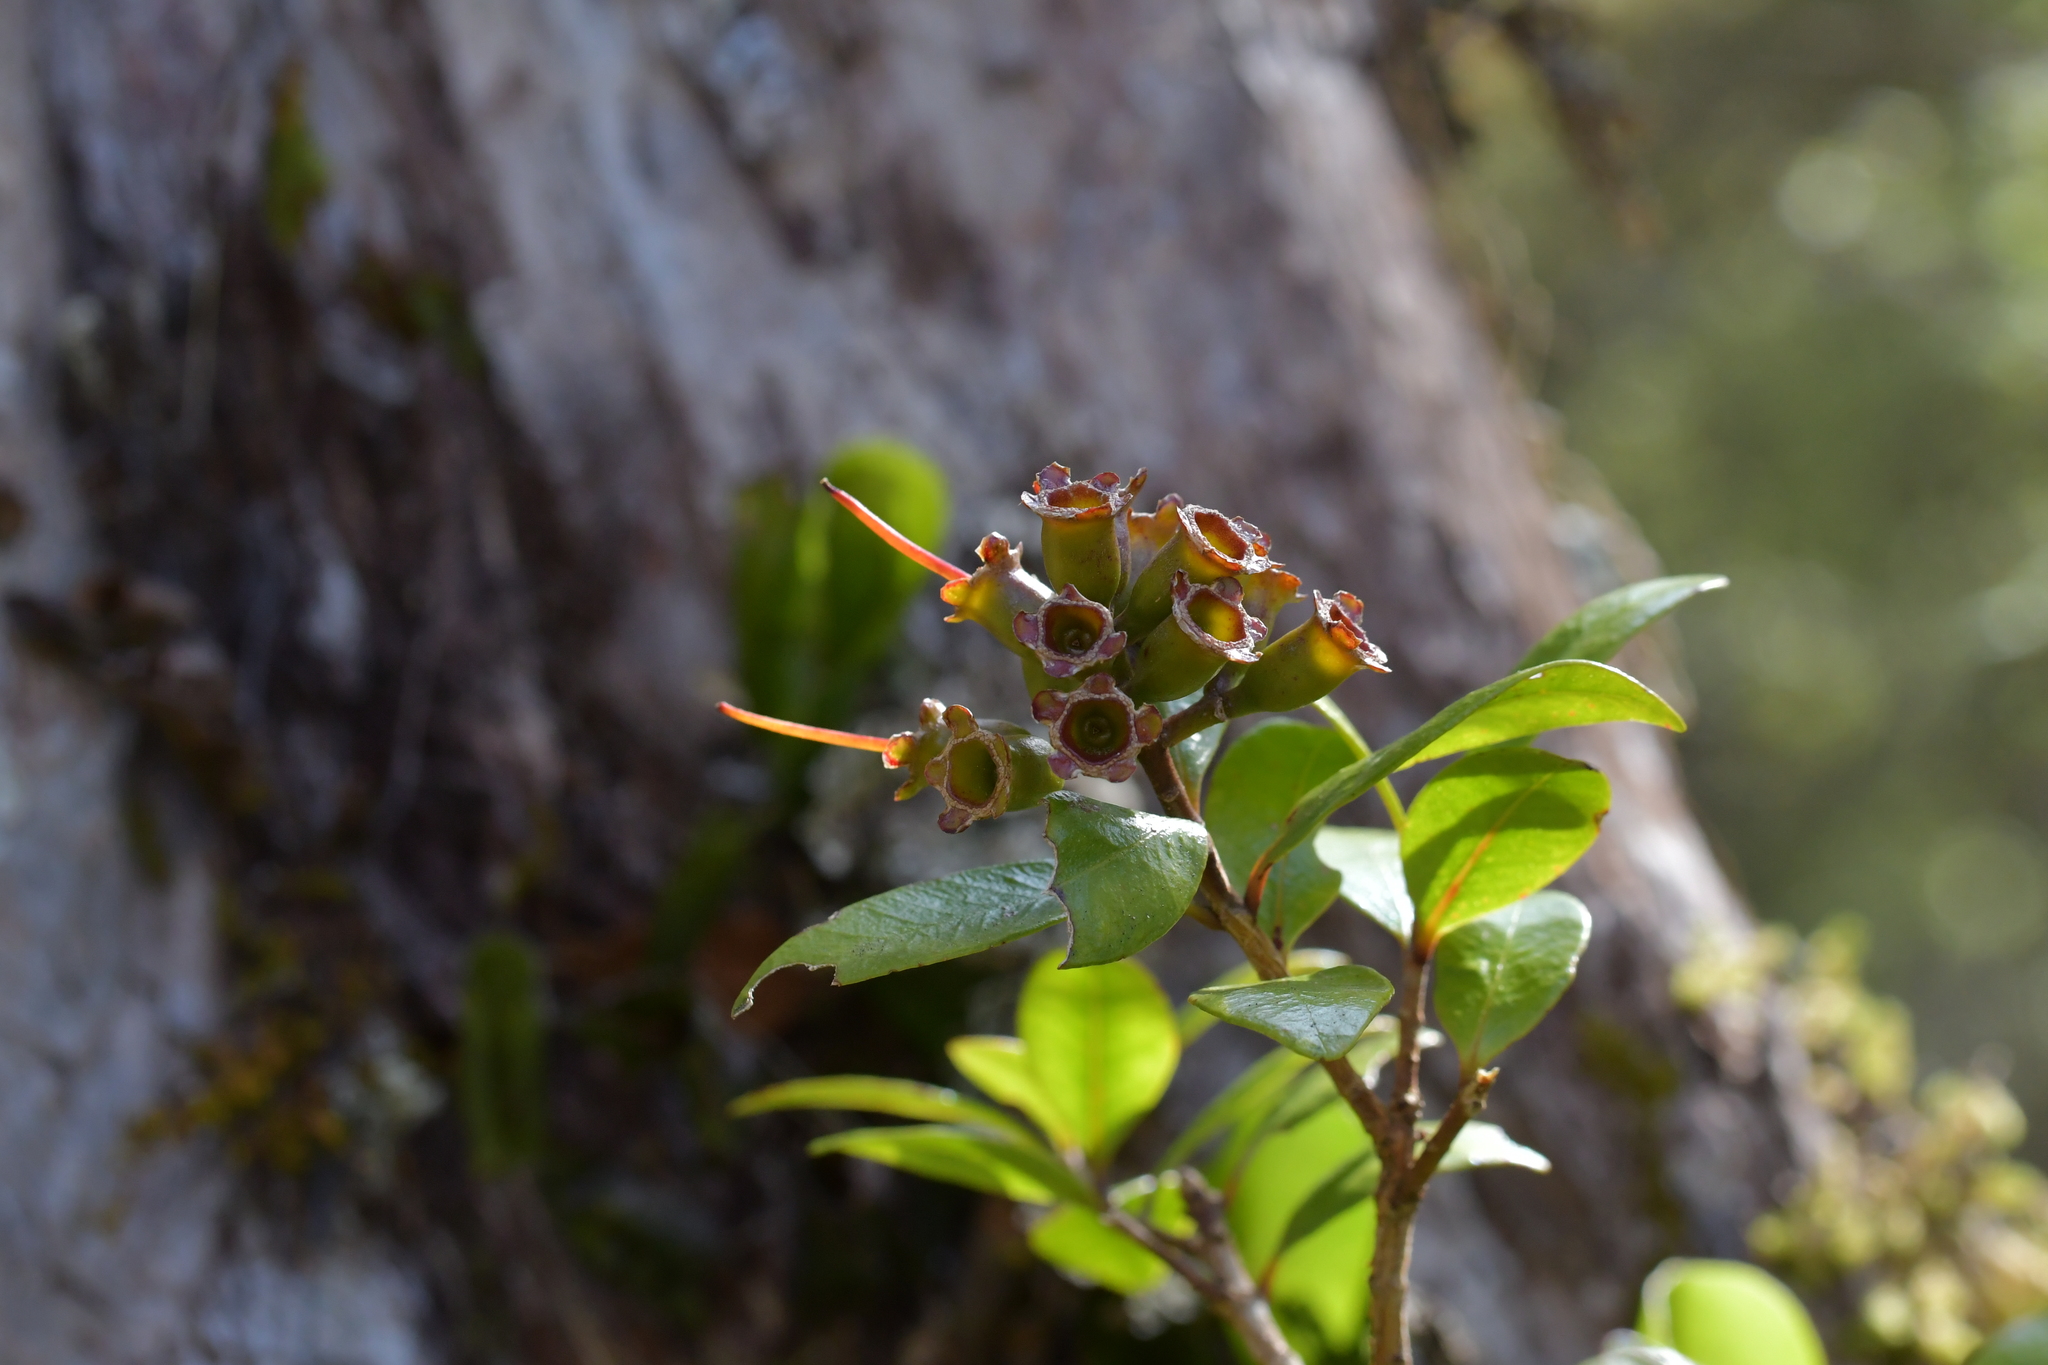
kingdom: Plantae
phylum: Tracheophyta
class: Magnoliopsida
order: Myrtales
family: Myrtaceae
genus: Metrosideros
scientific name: Metrosideros fulgens
